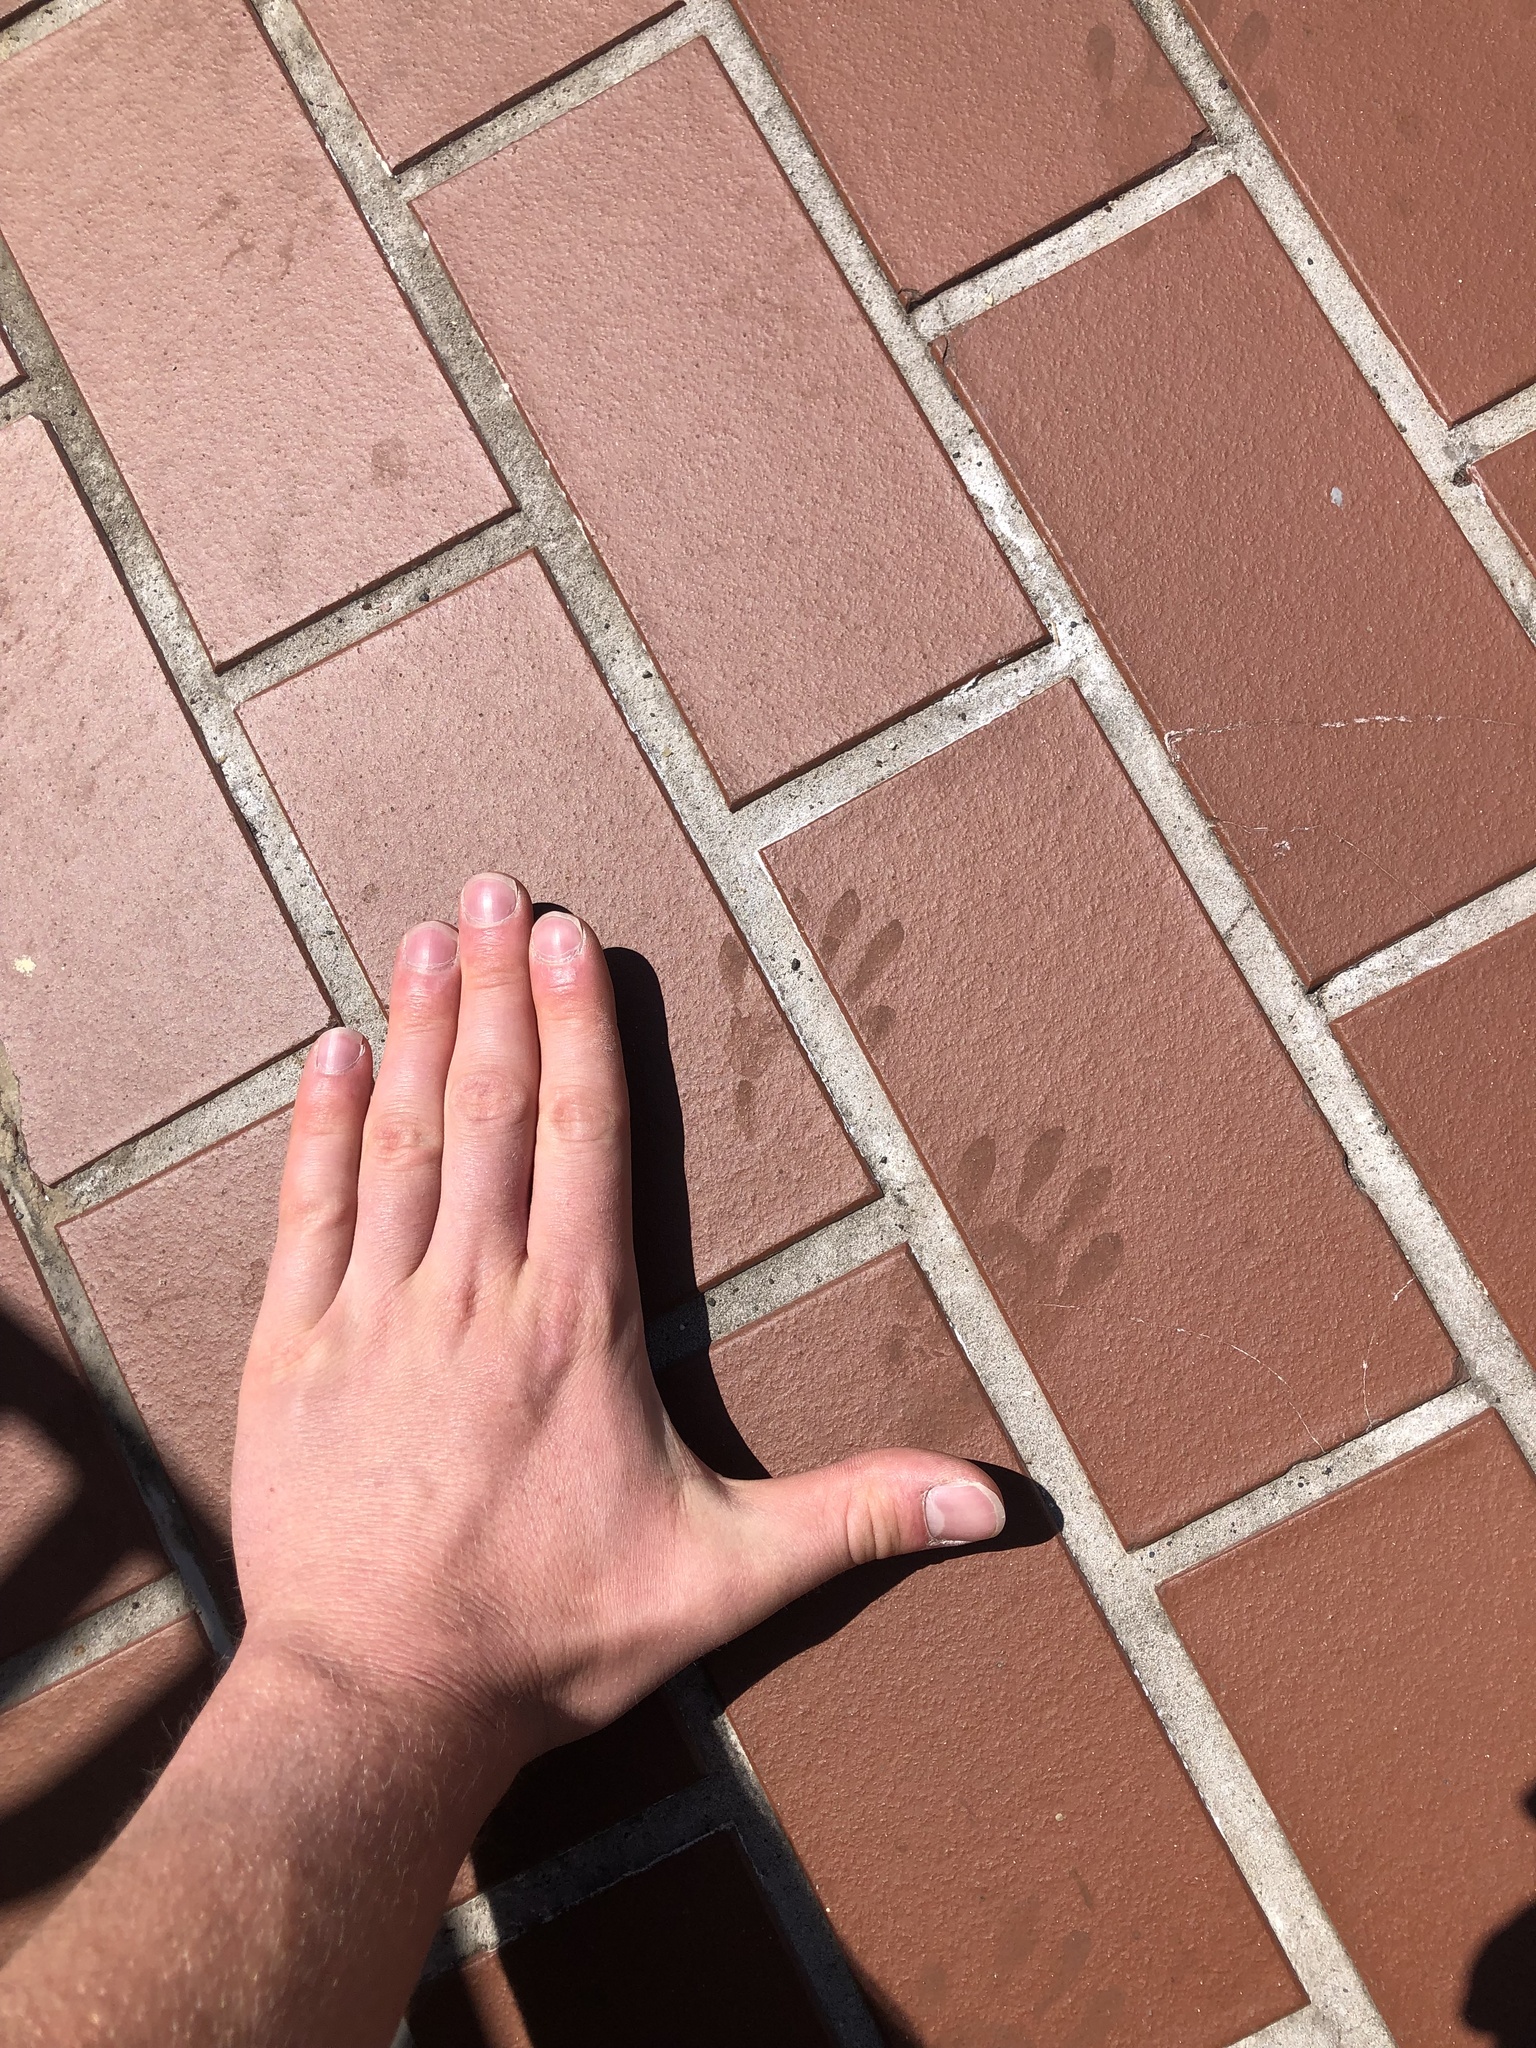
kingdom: Animalia
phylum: Chordata
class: Mammalia
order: Carnivora
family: Procyonidae
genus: Procyon
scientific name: Procyon lotor
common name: Raccoon
